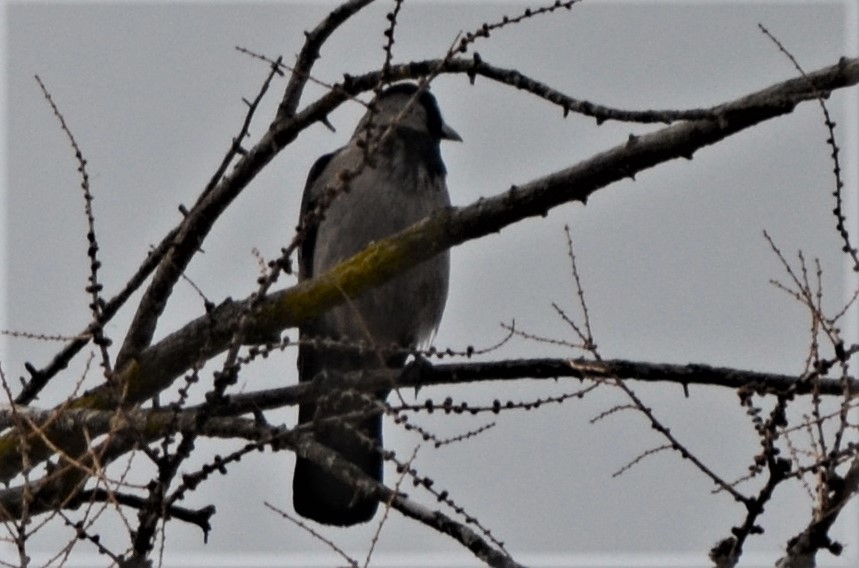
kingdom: Animalia
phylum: Chordata
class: Aves
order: Passeriformes
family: Corvidae
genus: Corvus
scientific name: Corvus cornix
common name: Hooded crow
